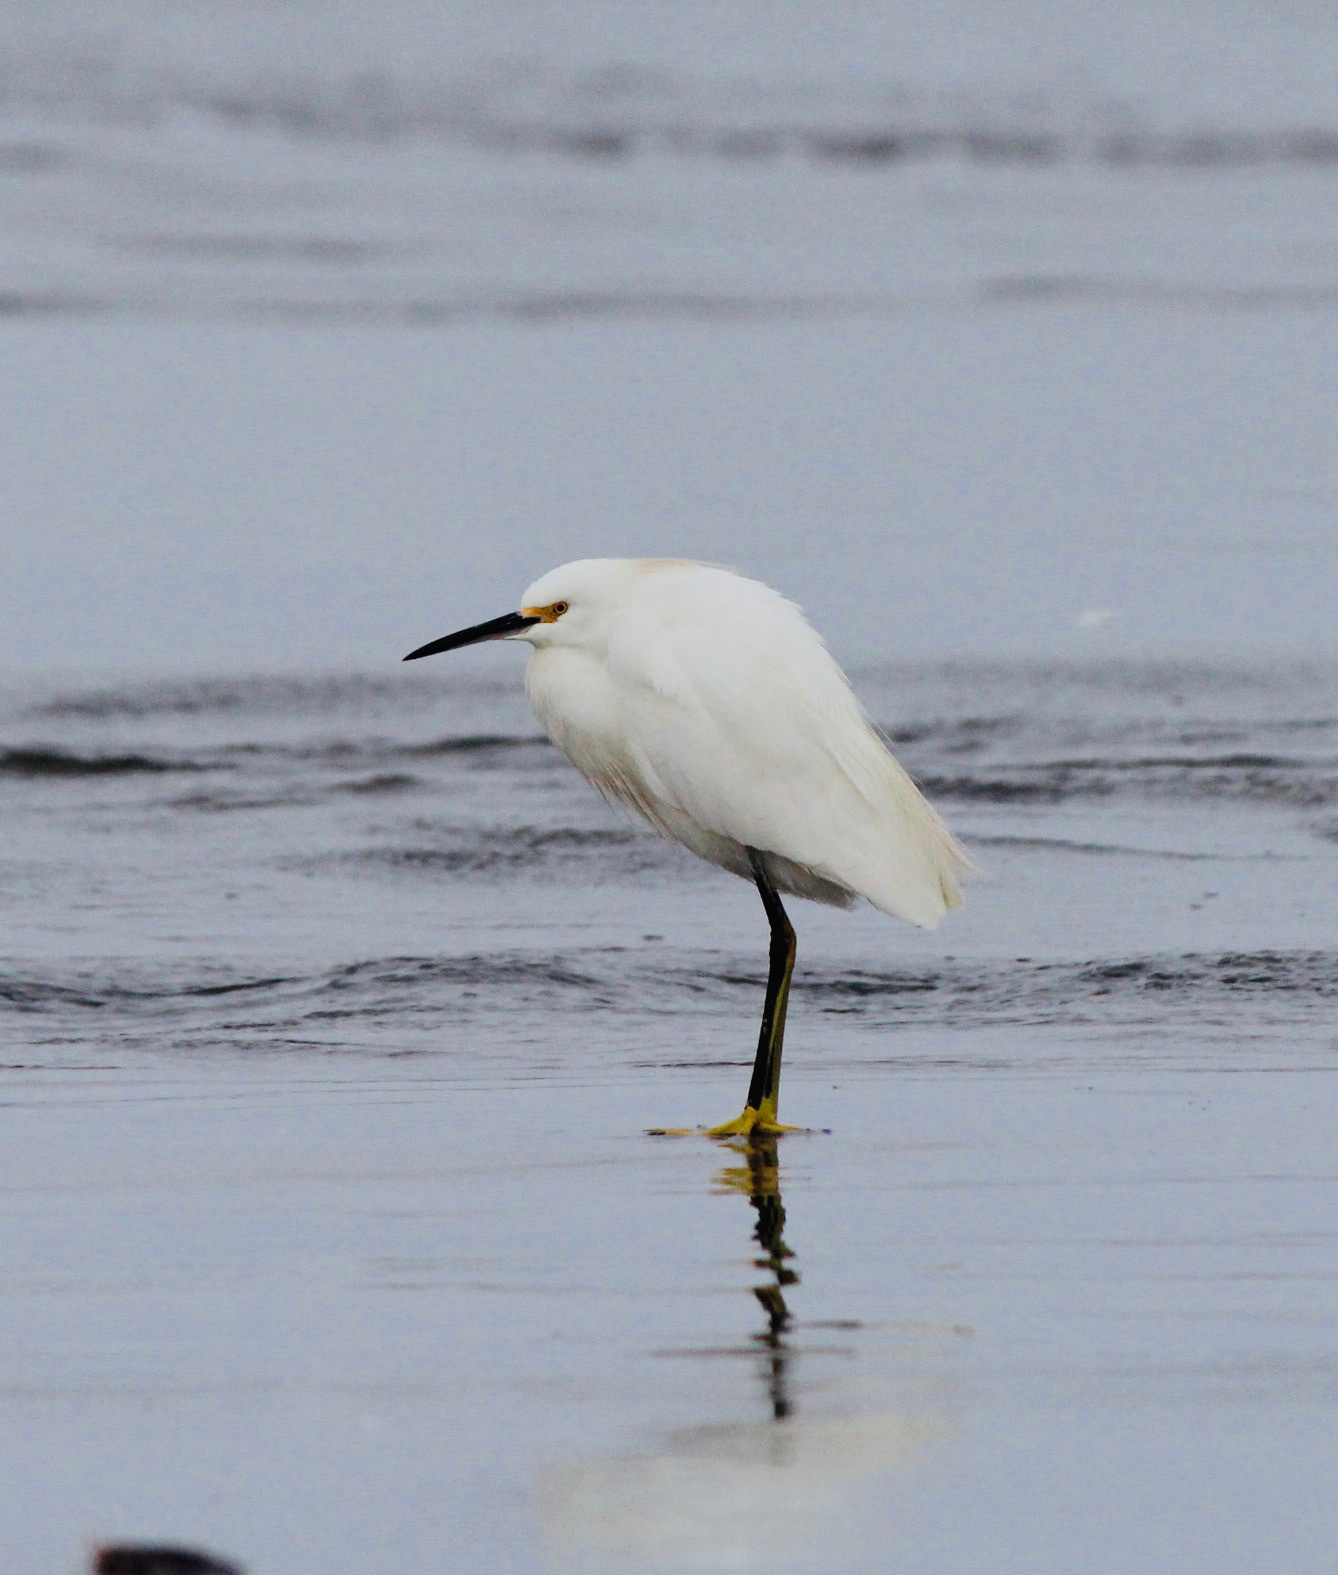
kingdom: Animalia
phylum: Chordata
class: Aves
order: Pelecaniformes
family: Ardeidae
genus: Egretta
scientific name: Egretta thula
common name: Snowy egret
